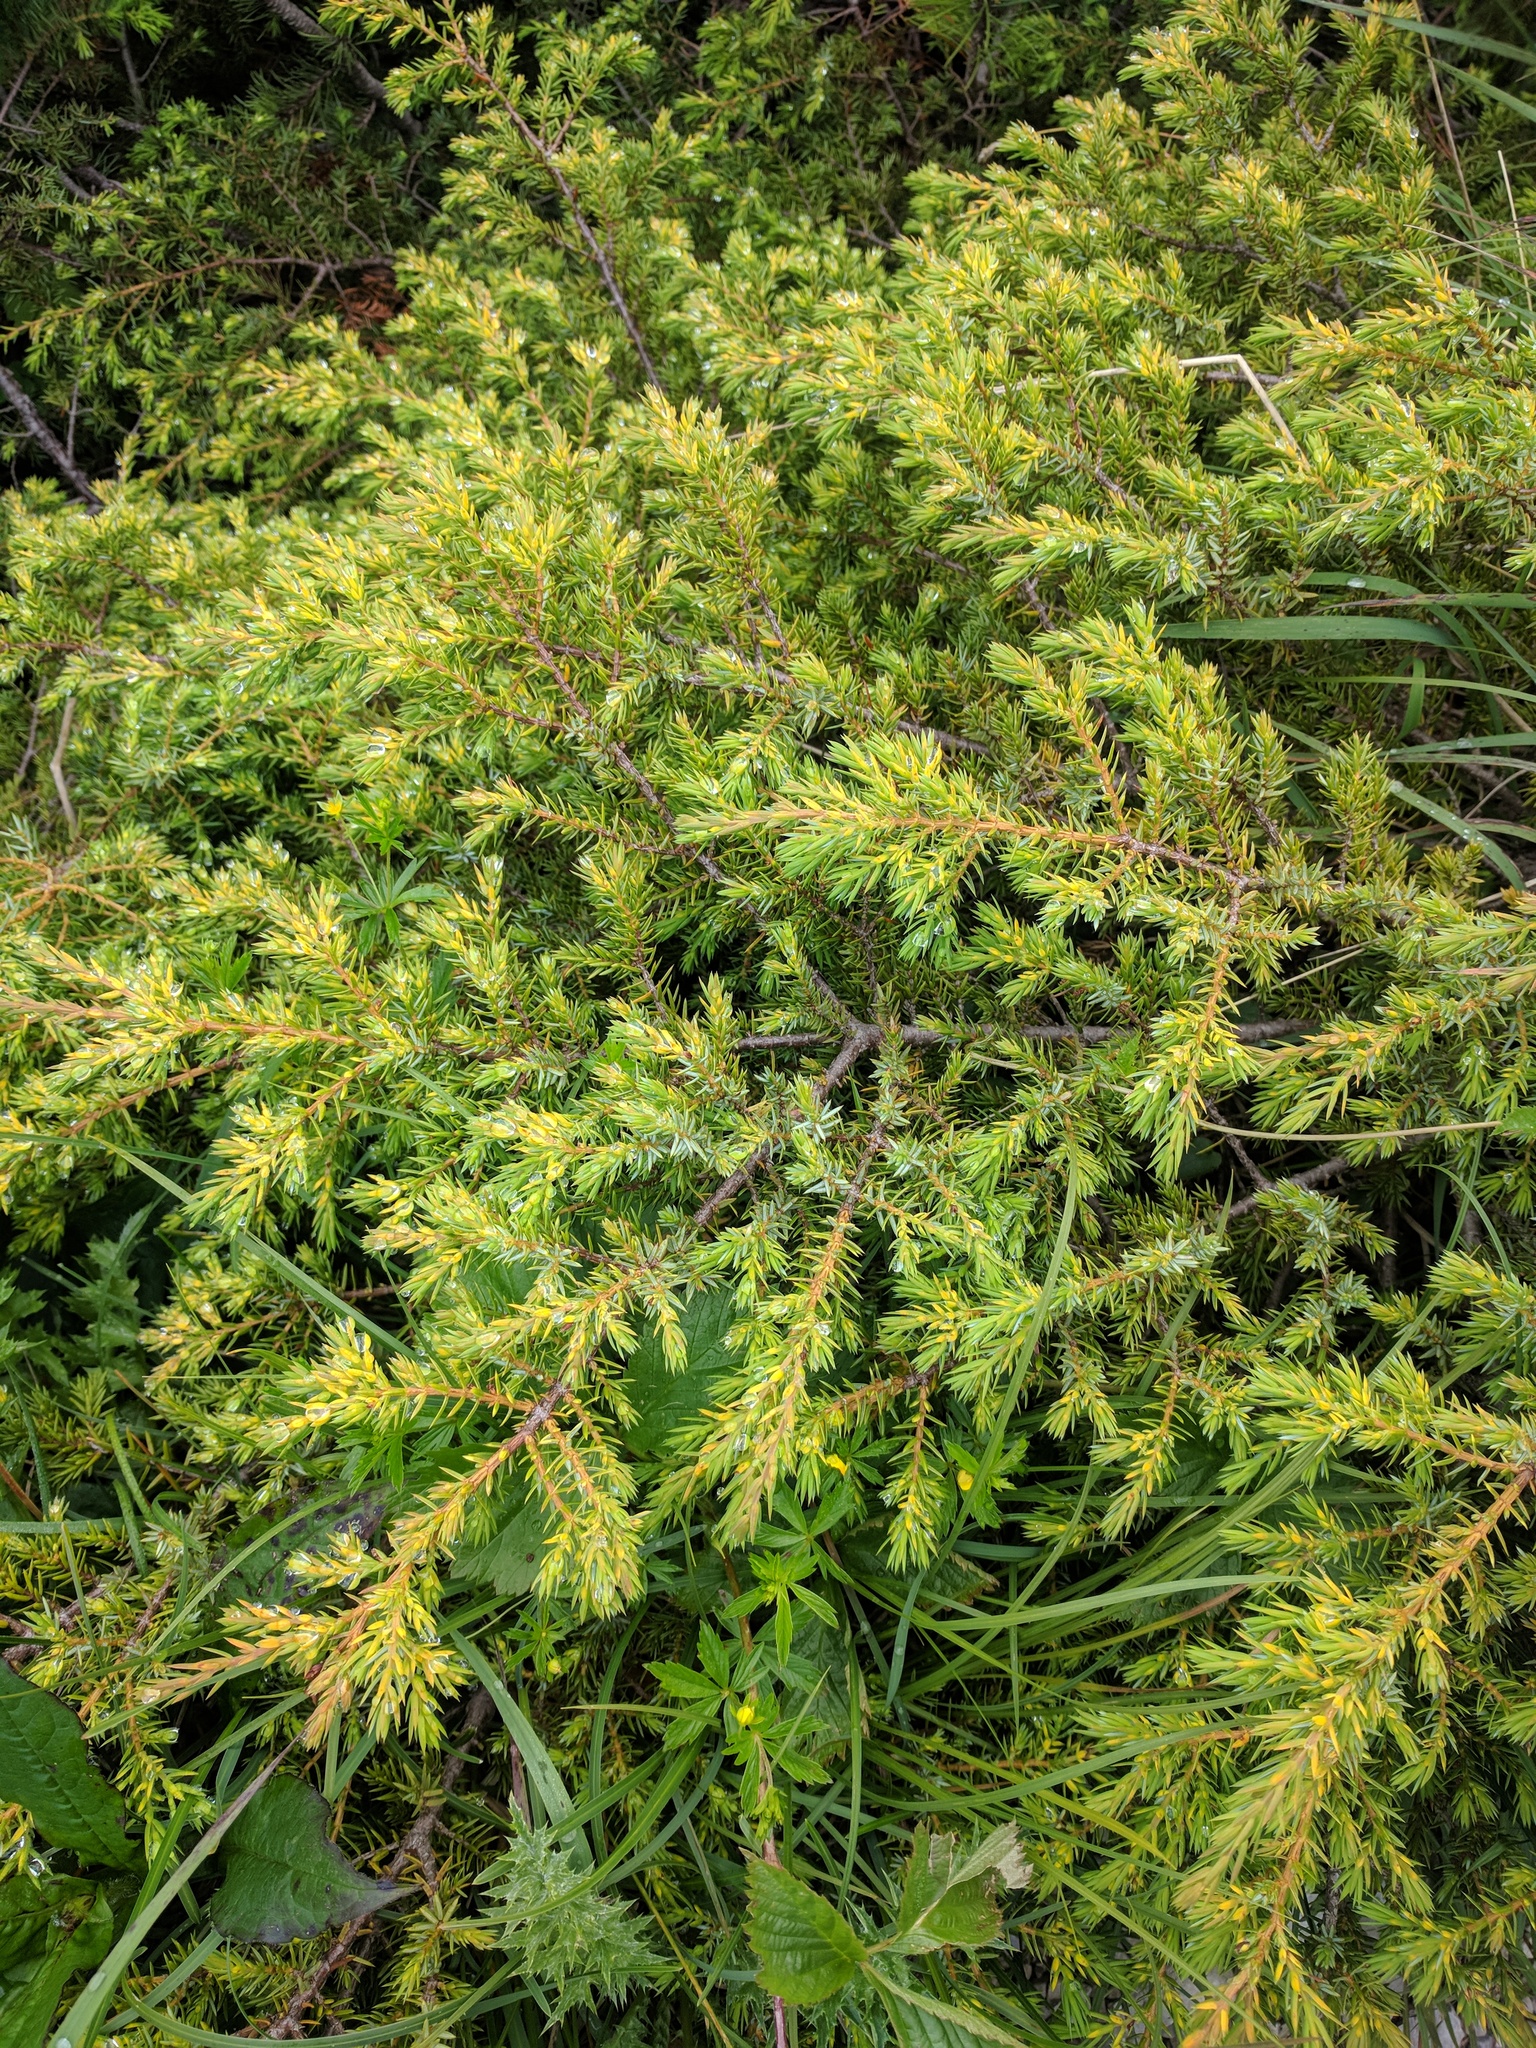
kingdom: Plantae
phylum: Tracheophyta
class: Pinopsida
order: Pinales
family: Cupressaceae
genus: Juniperus
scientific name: Juniperus communis
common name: Common juniper
